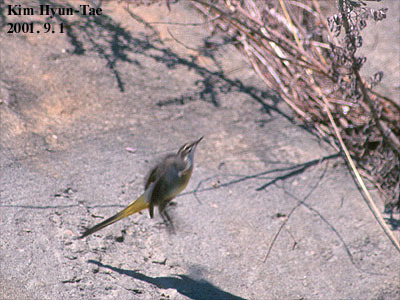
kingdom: Animalia
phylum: Chordata
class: Aves
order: Passeriformes
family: Motacillidae
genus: Motacilla
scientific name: Motacilla cinerea
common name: Grey wagtail
